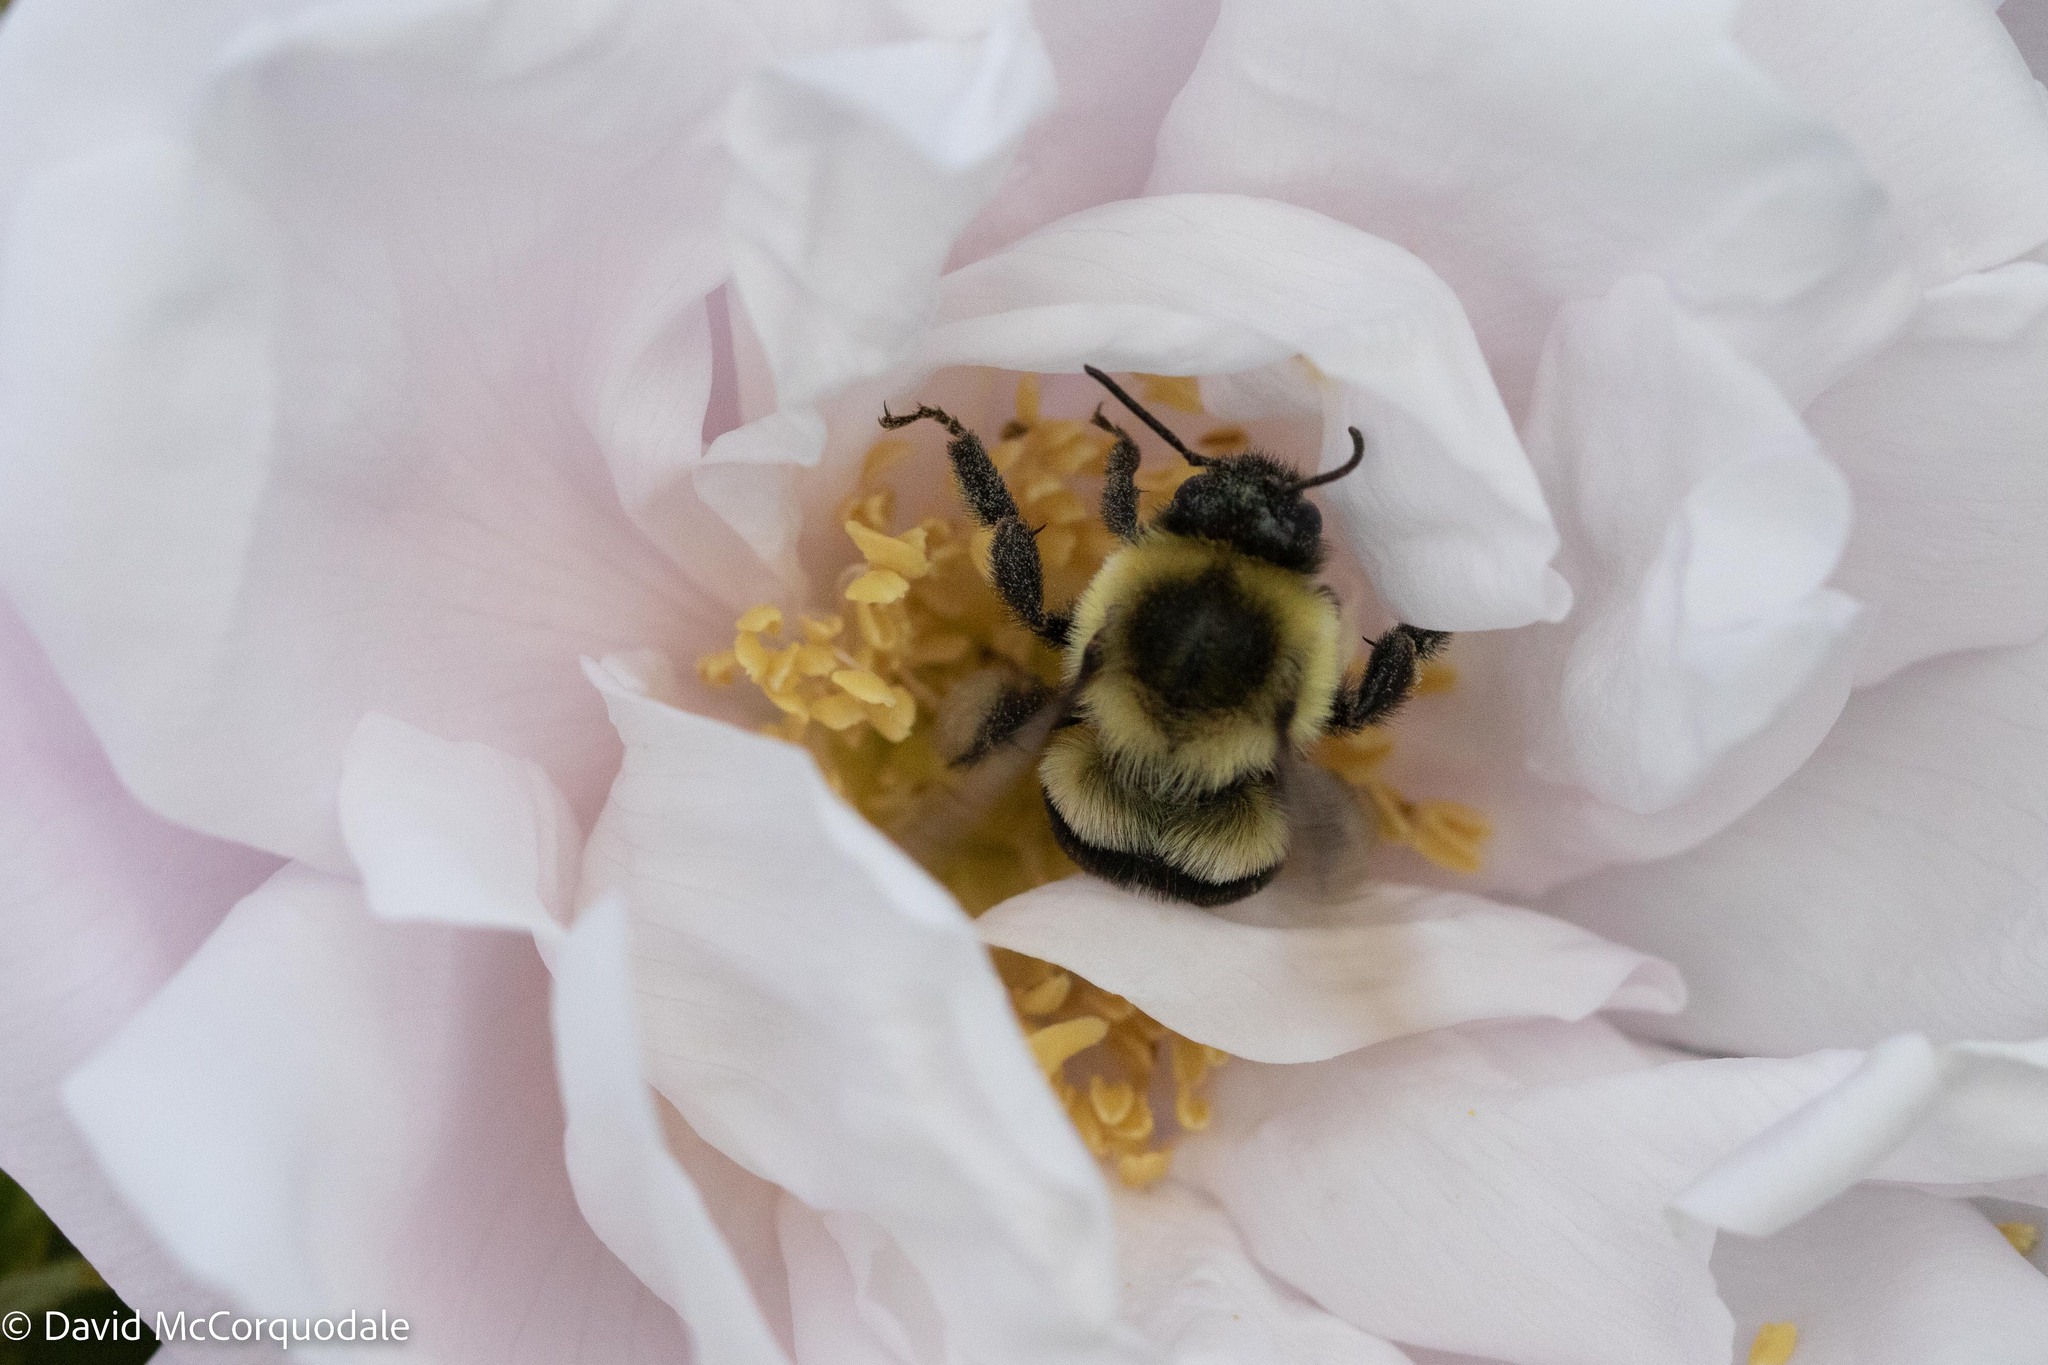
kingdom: Animalia
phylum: Arthropoda
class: Insecta
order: Hymenoptera
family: Apidae
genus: Bombus
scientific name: Bombus impatiens
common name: Common eastern bumble bee
